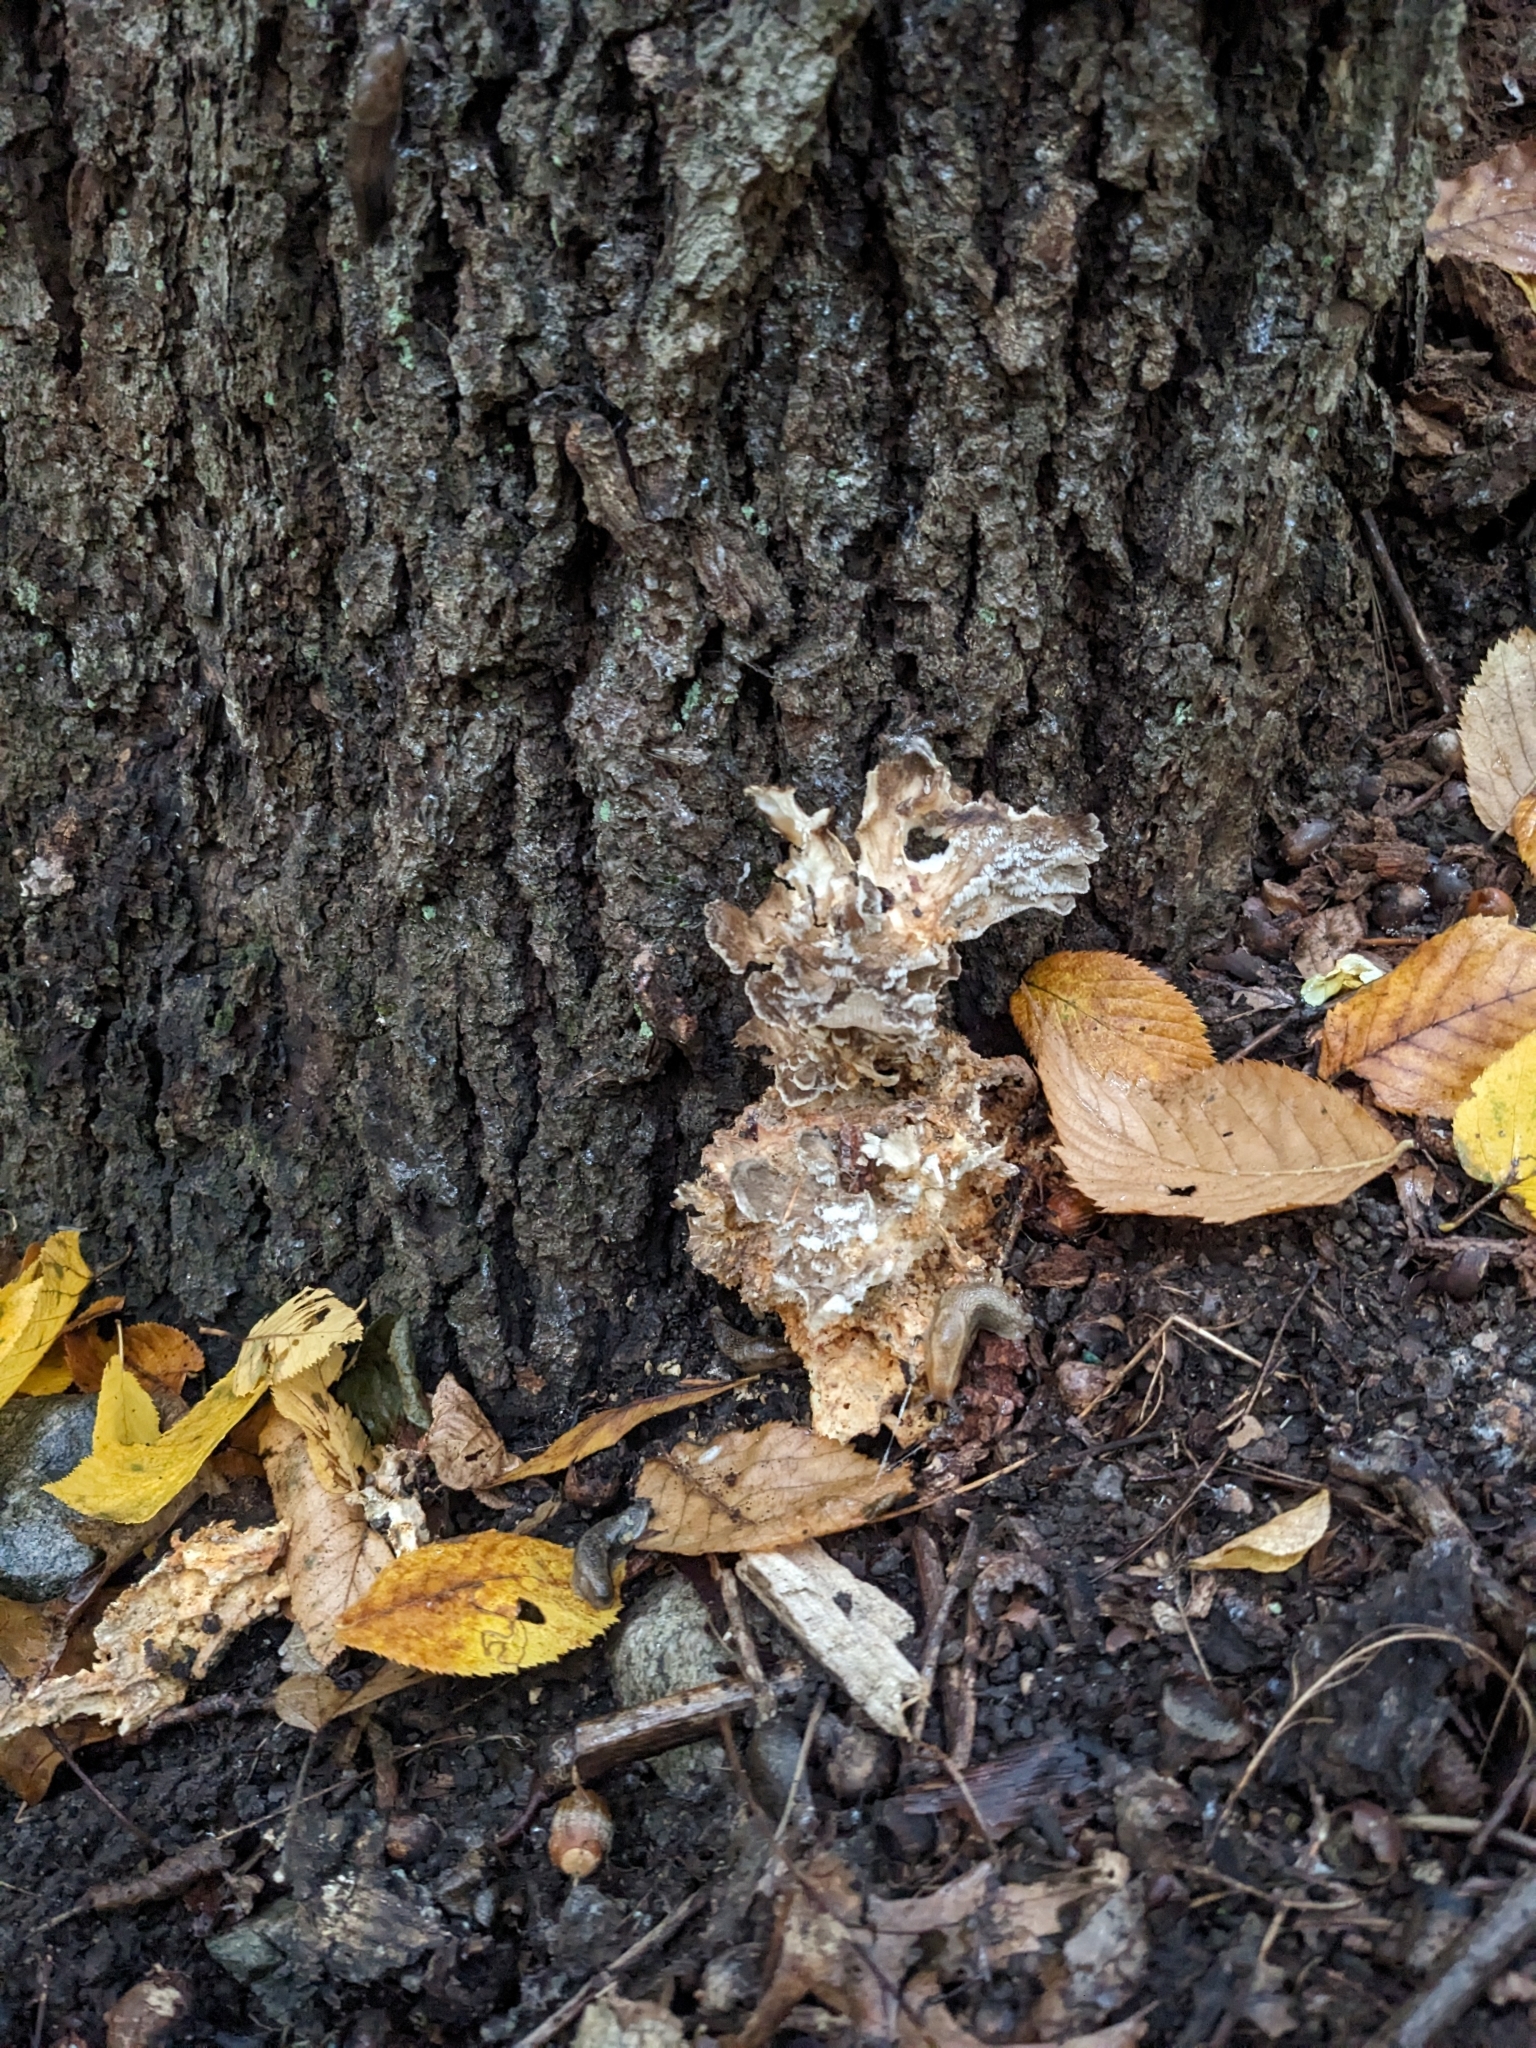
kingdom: Fungi
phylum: Basidiomycota
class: Agaricomycetes
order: Polyporales
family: Grifolaceae
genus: Grifola
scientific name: Grifola frondosa
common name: Hen of the woods
